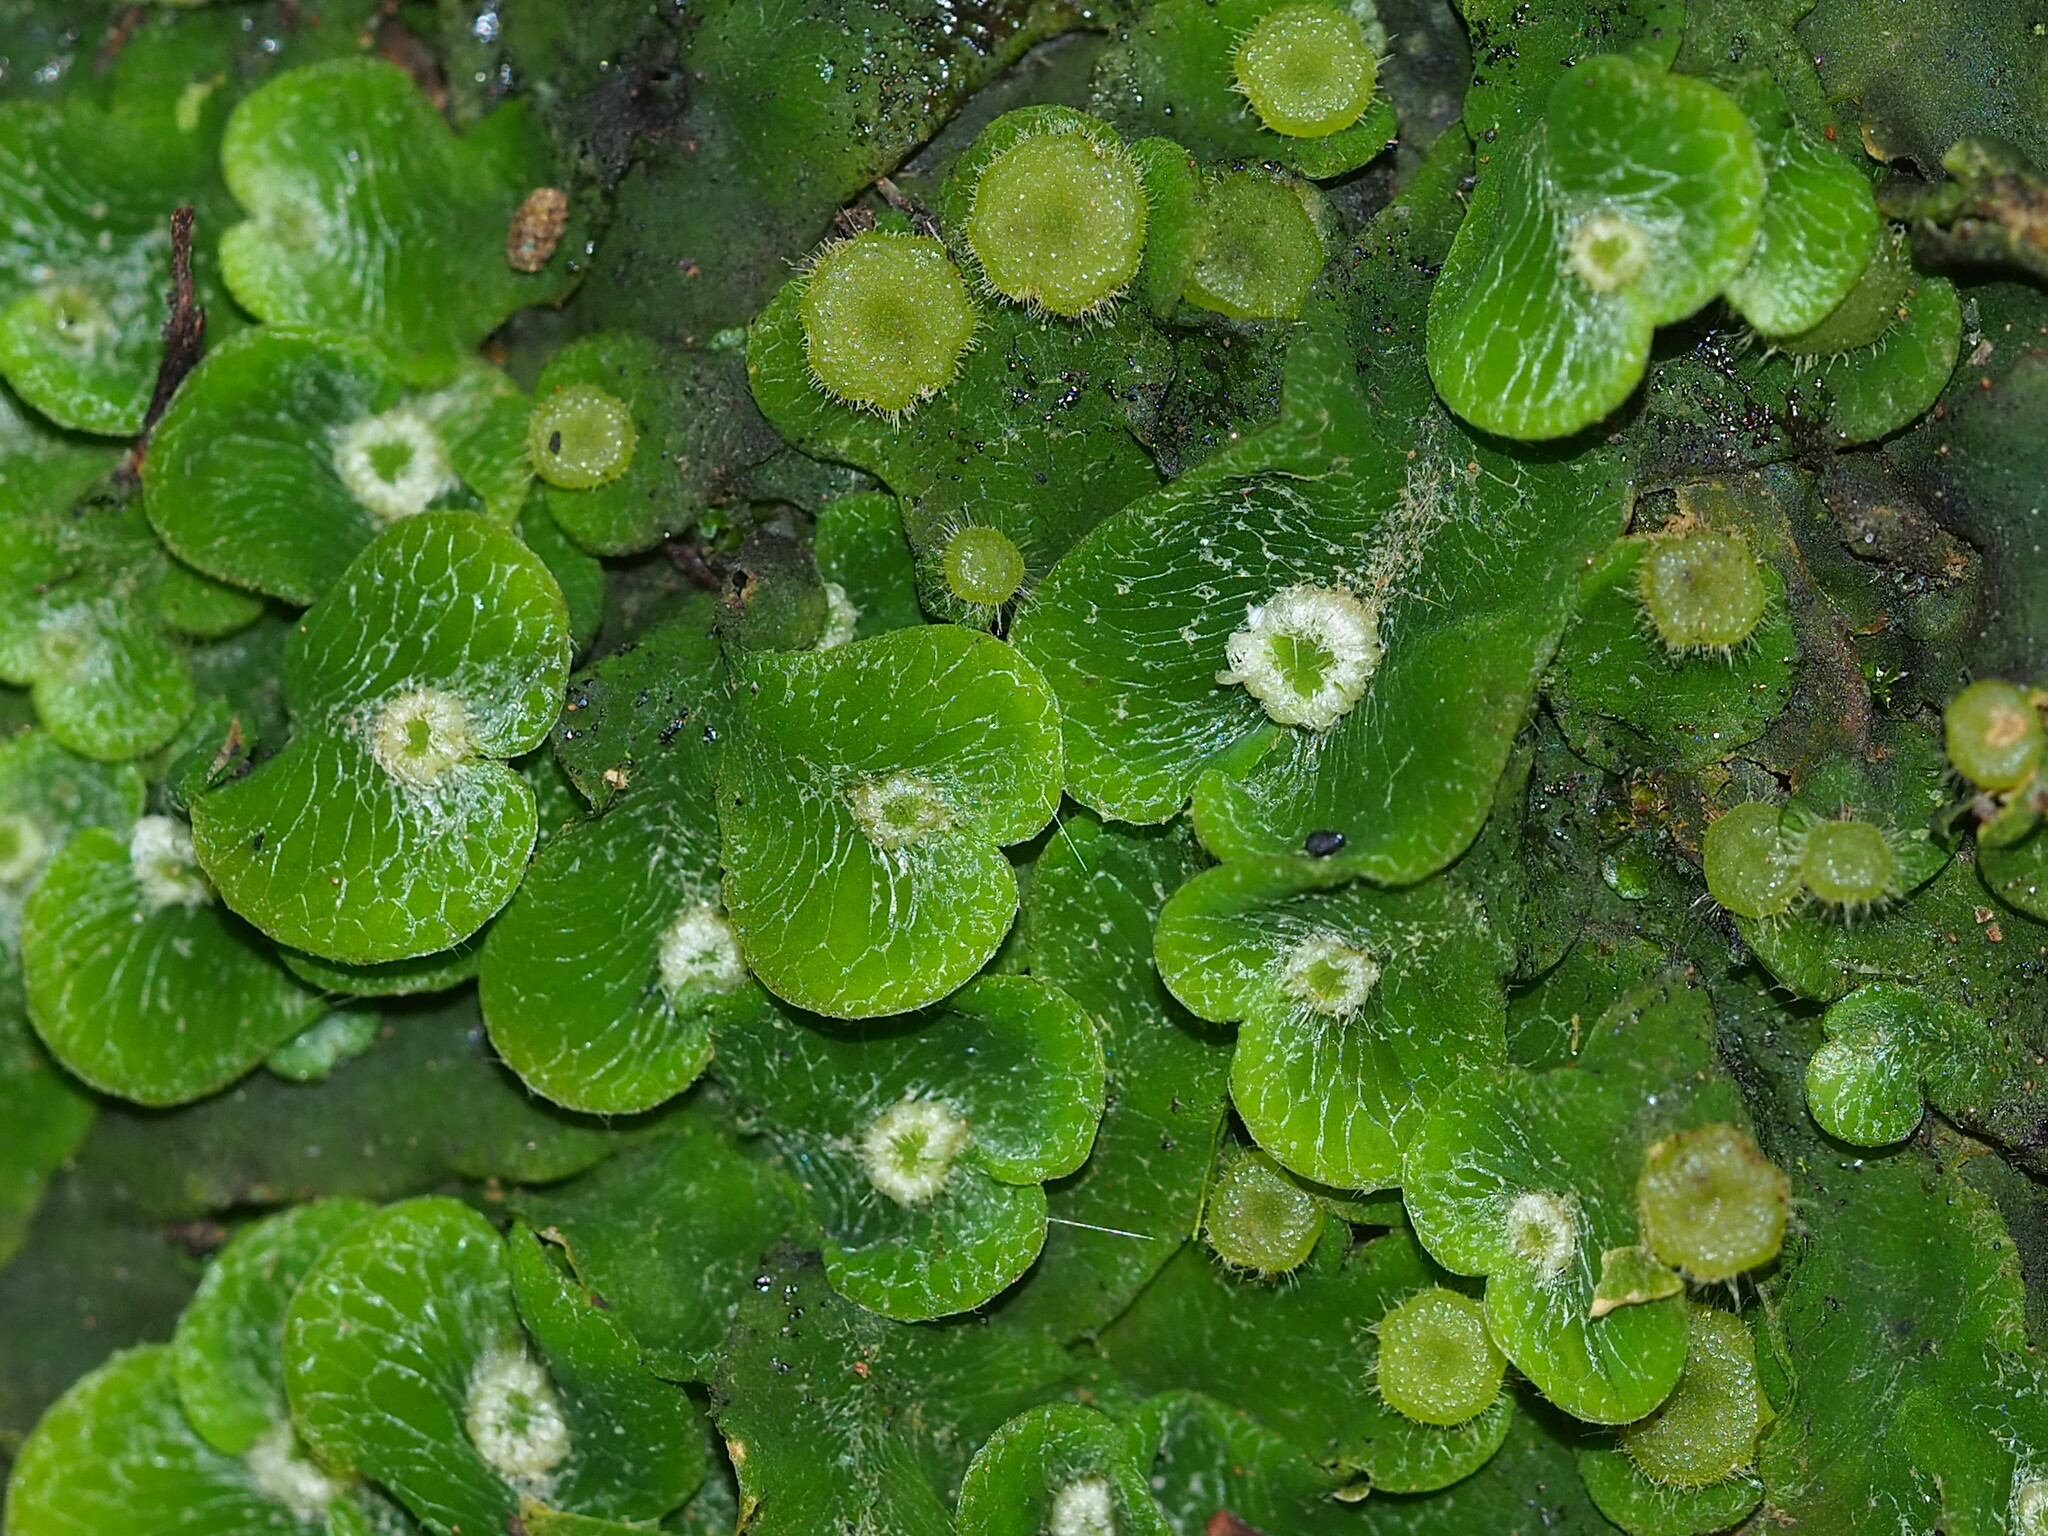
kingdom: Plantae
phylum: Marchantiophyta
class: Marchantiopsida
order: Marchantiales
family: Dumortieraceae
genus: Dumortiera
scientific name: Dumortiera hirsuta
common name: Dumortier's liverwort
